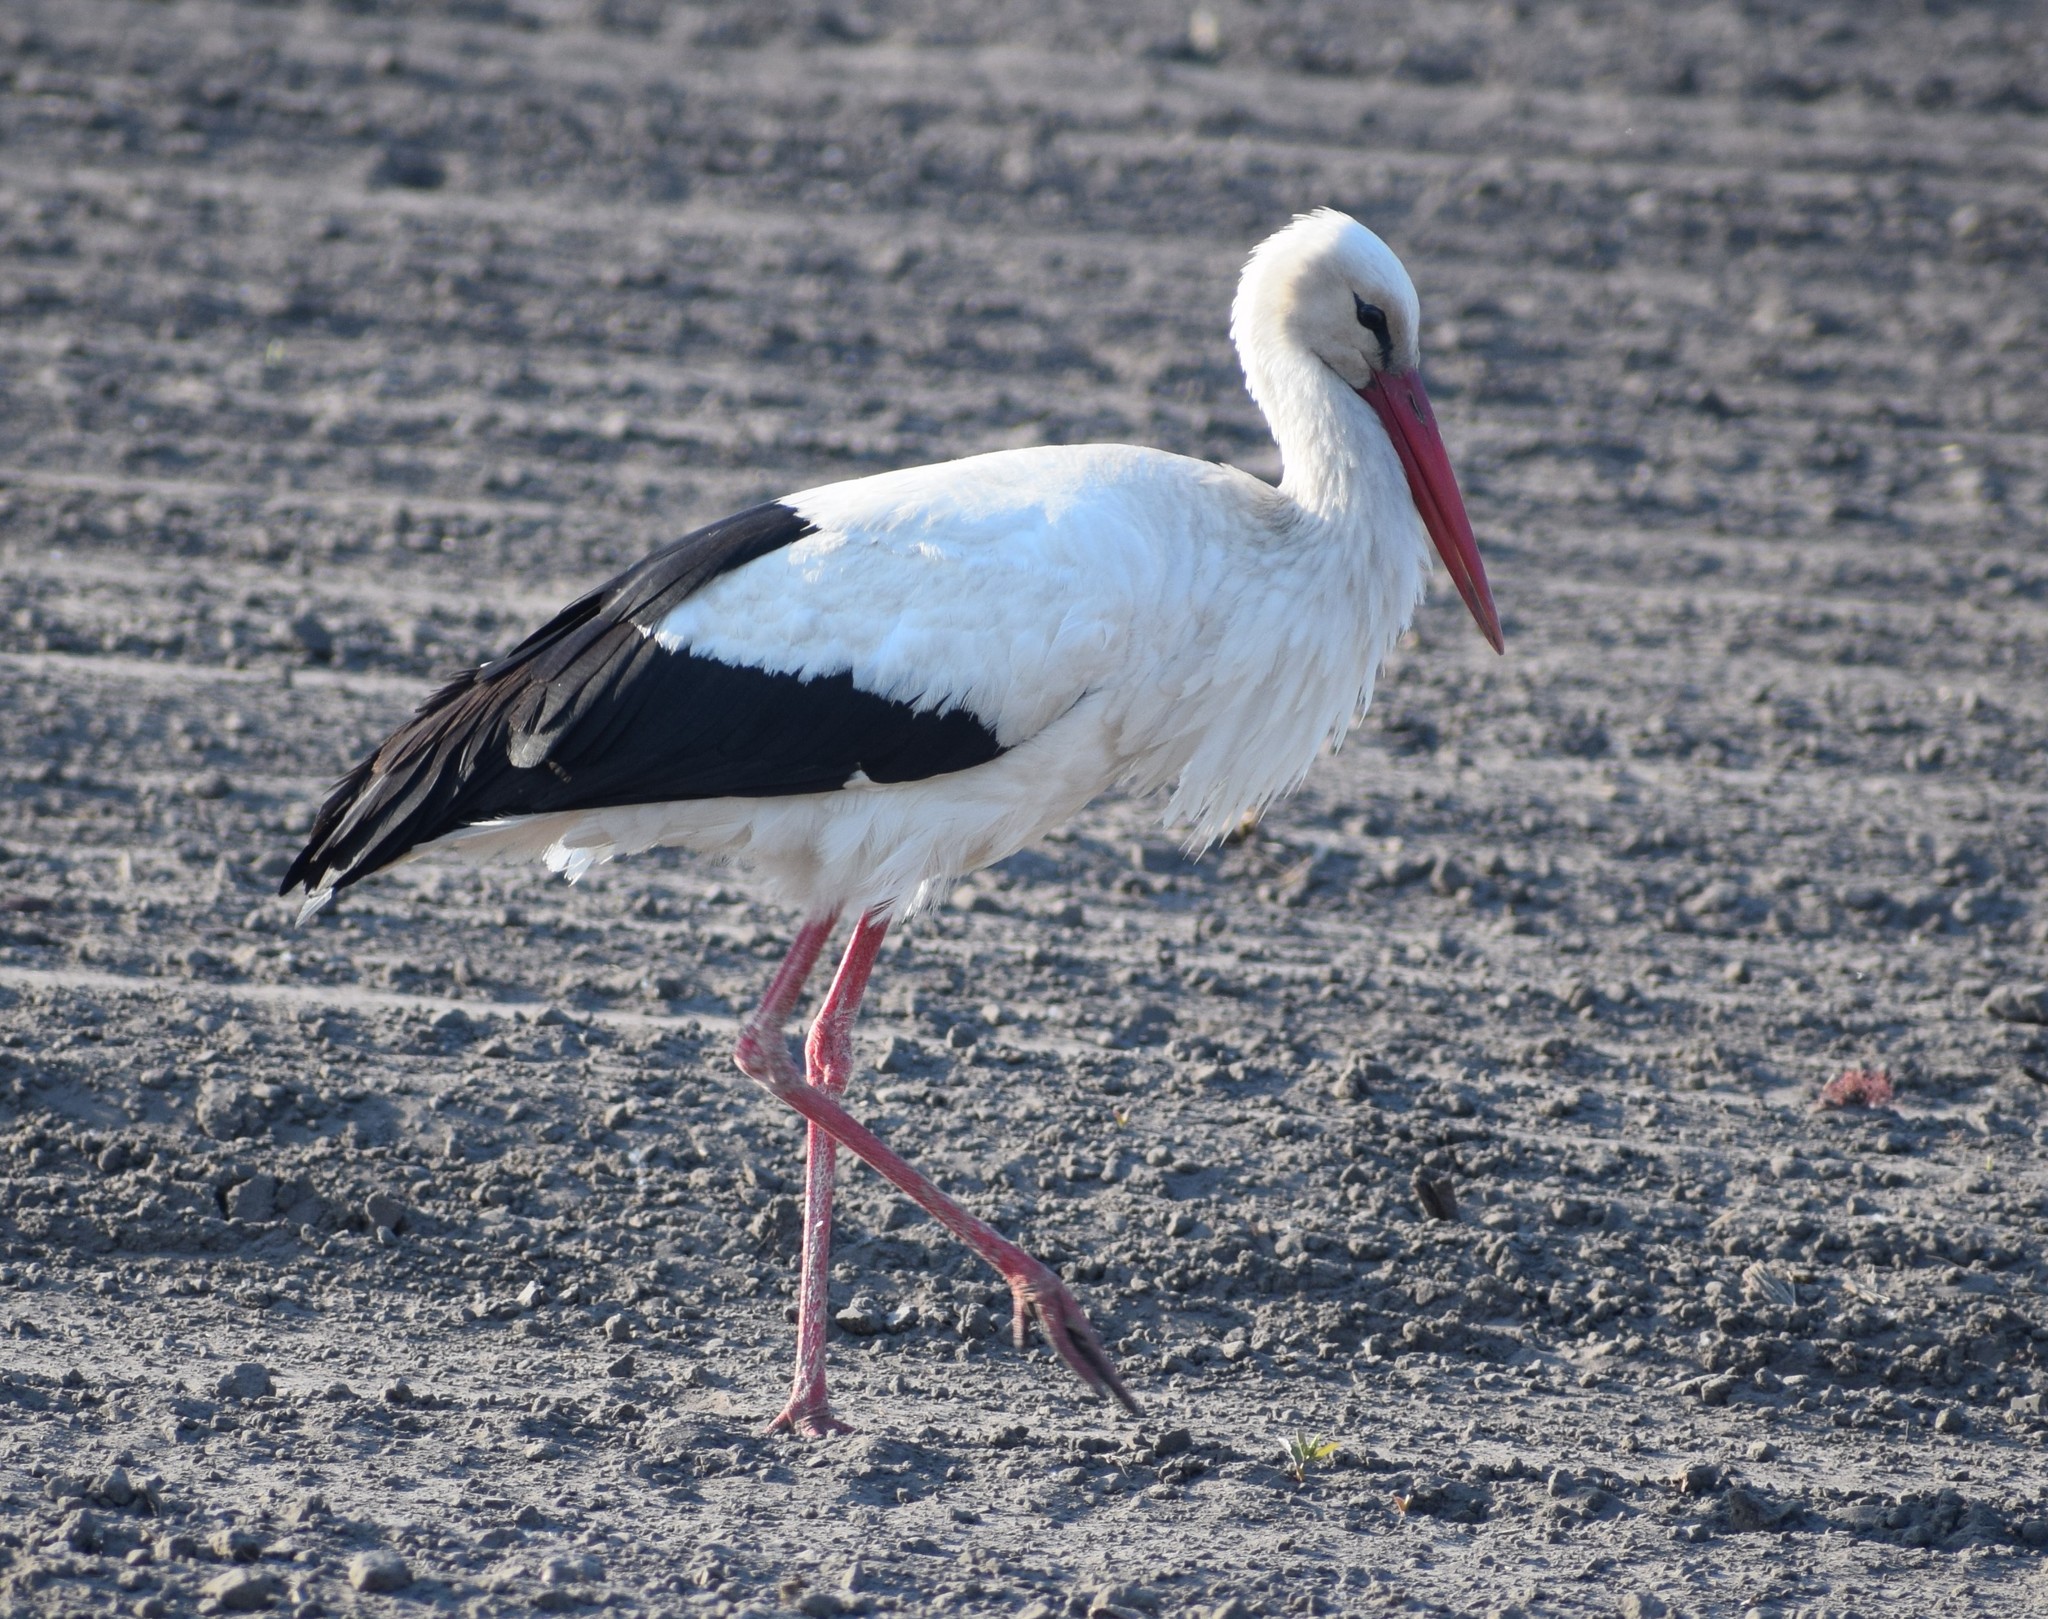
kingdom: Animalia
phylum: Chordata
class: Aves
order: Ciconiiformes
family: Ciconiidae
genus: Ciconia
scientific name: Ciconia ciconia
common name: White stork
